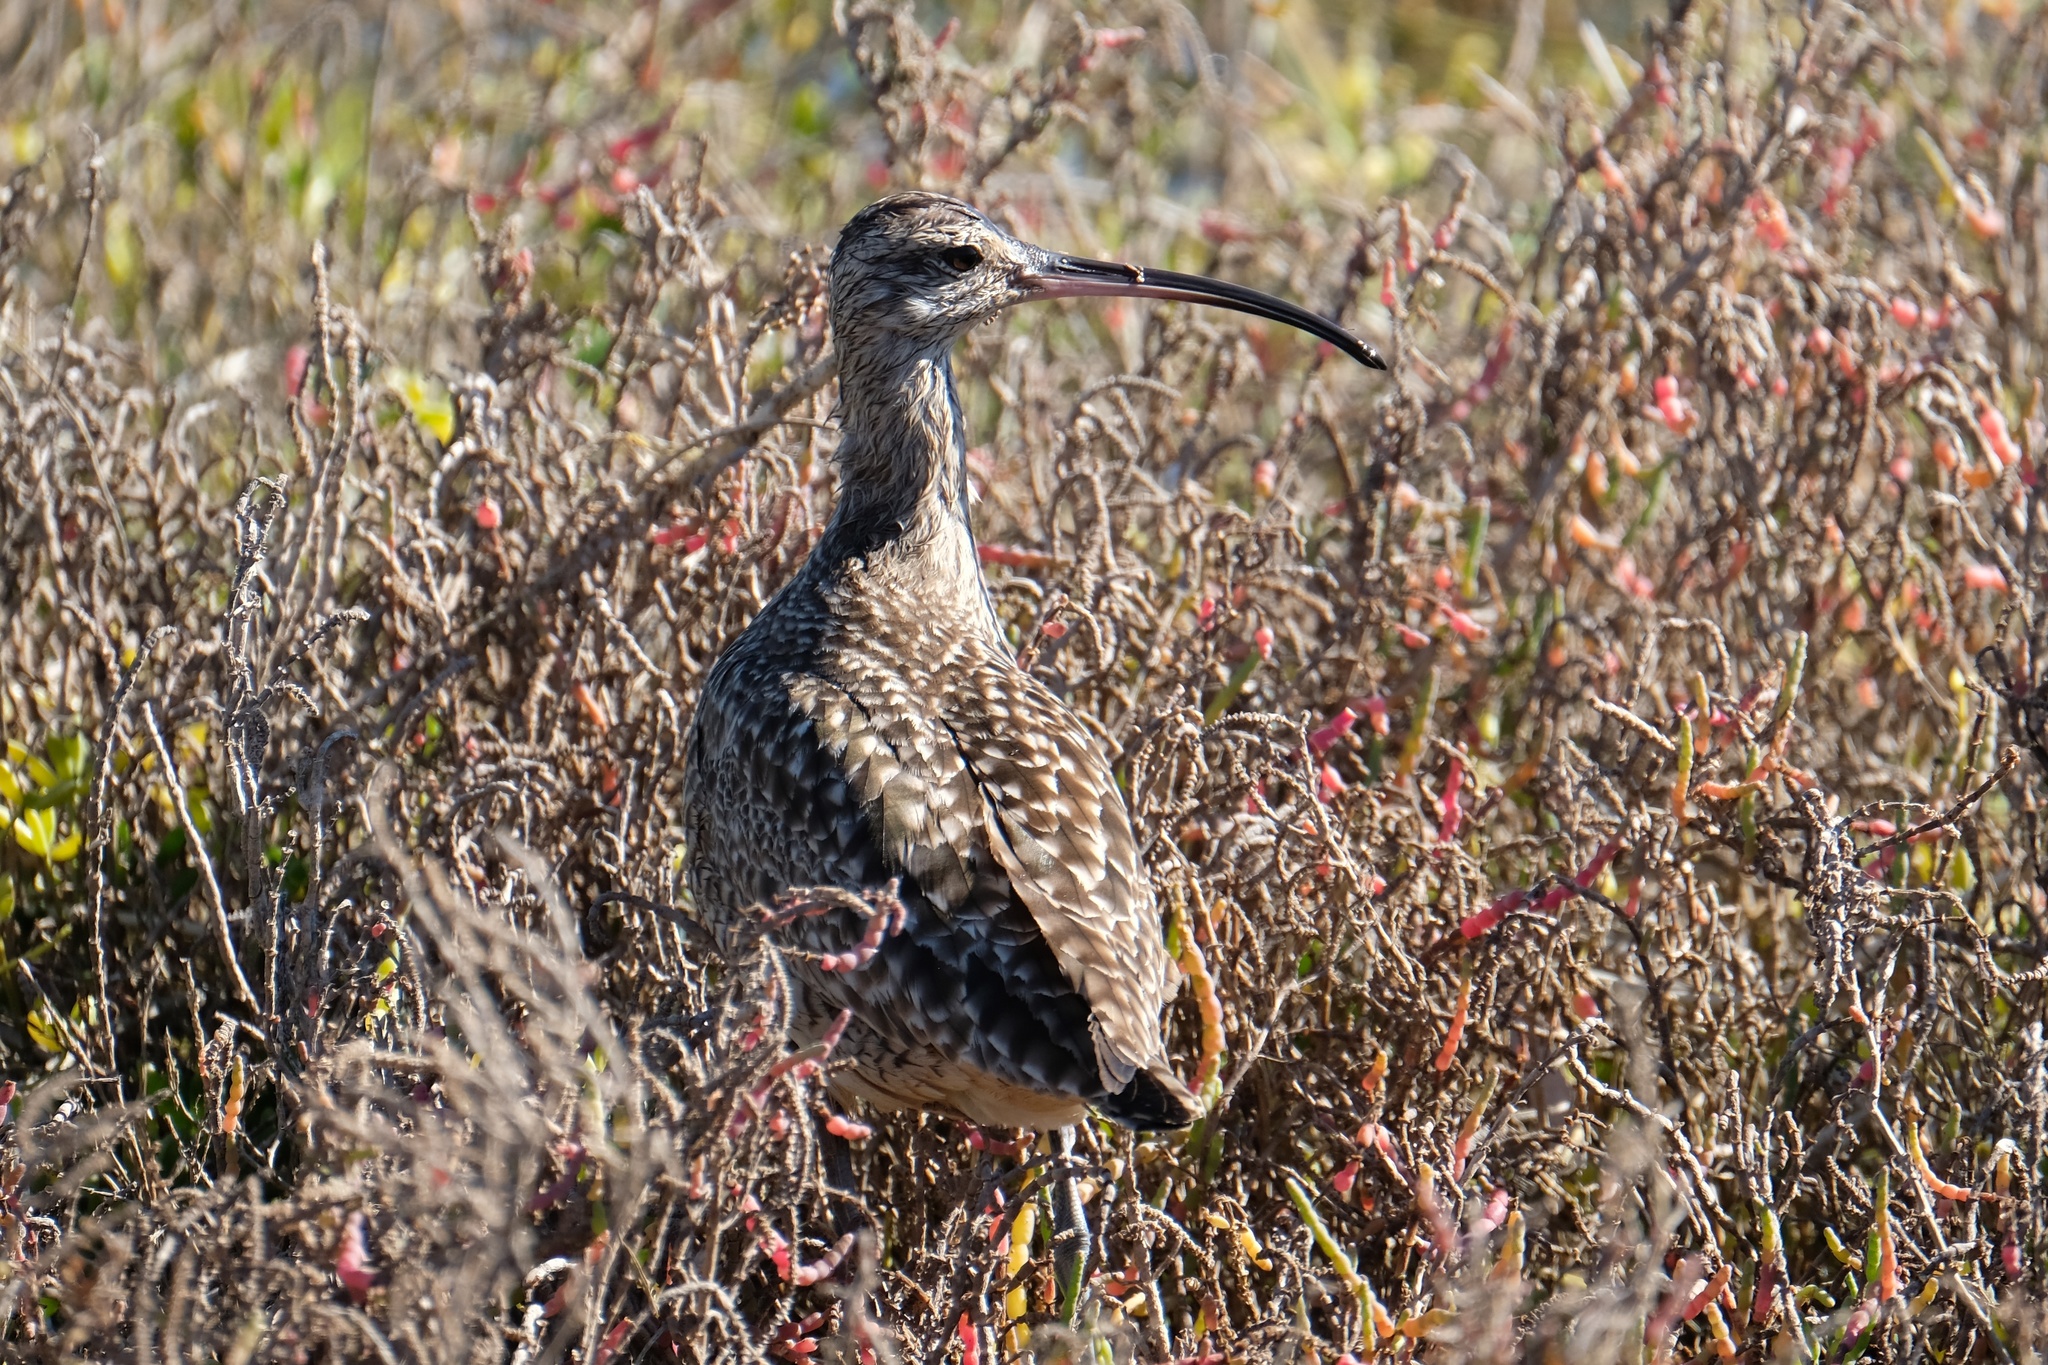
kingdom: Animalia
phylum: Chordata
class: Aves
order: Charadriiformes
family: Scolopacidae
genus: Numenius
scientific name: Numenius phaeopus
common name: Whimbrel
